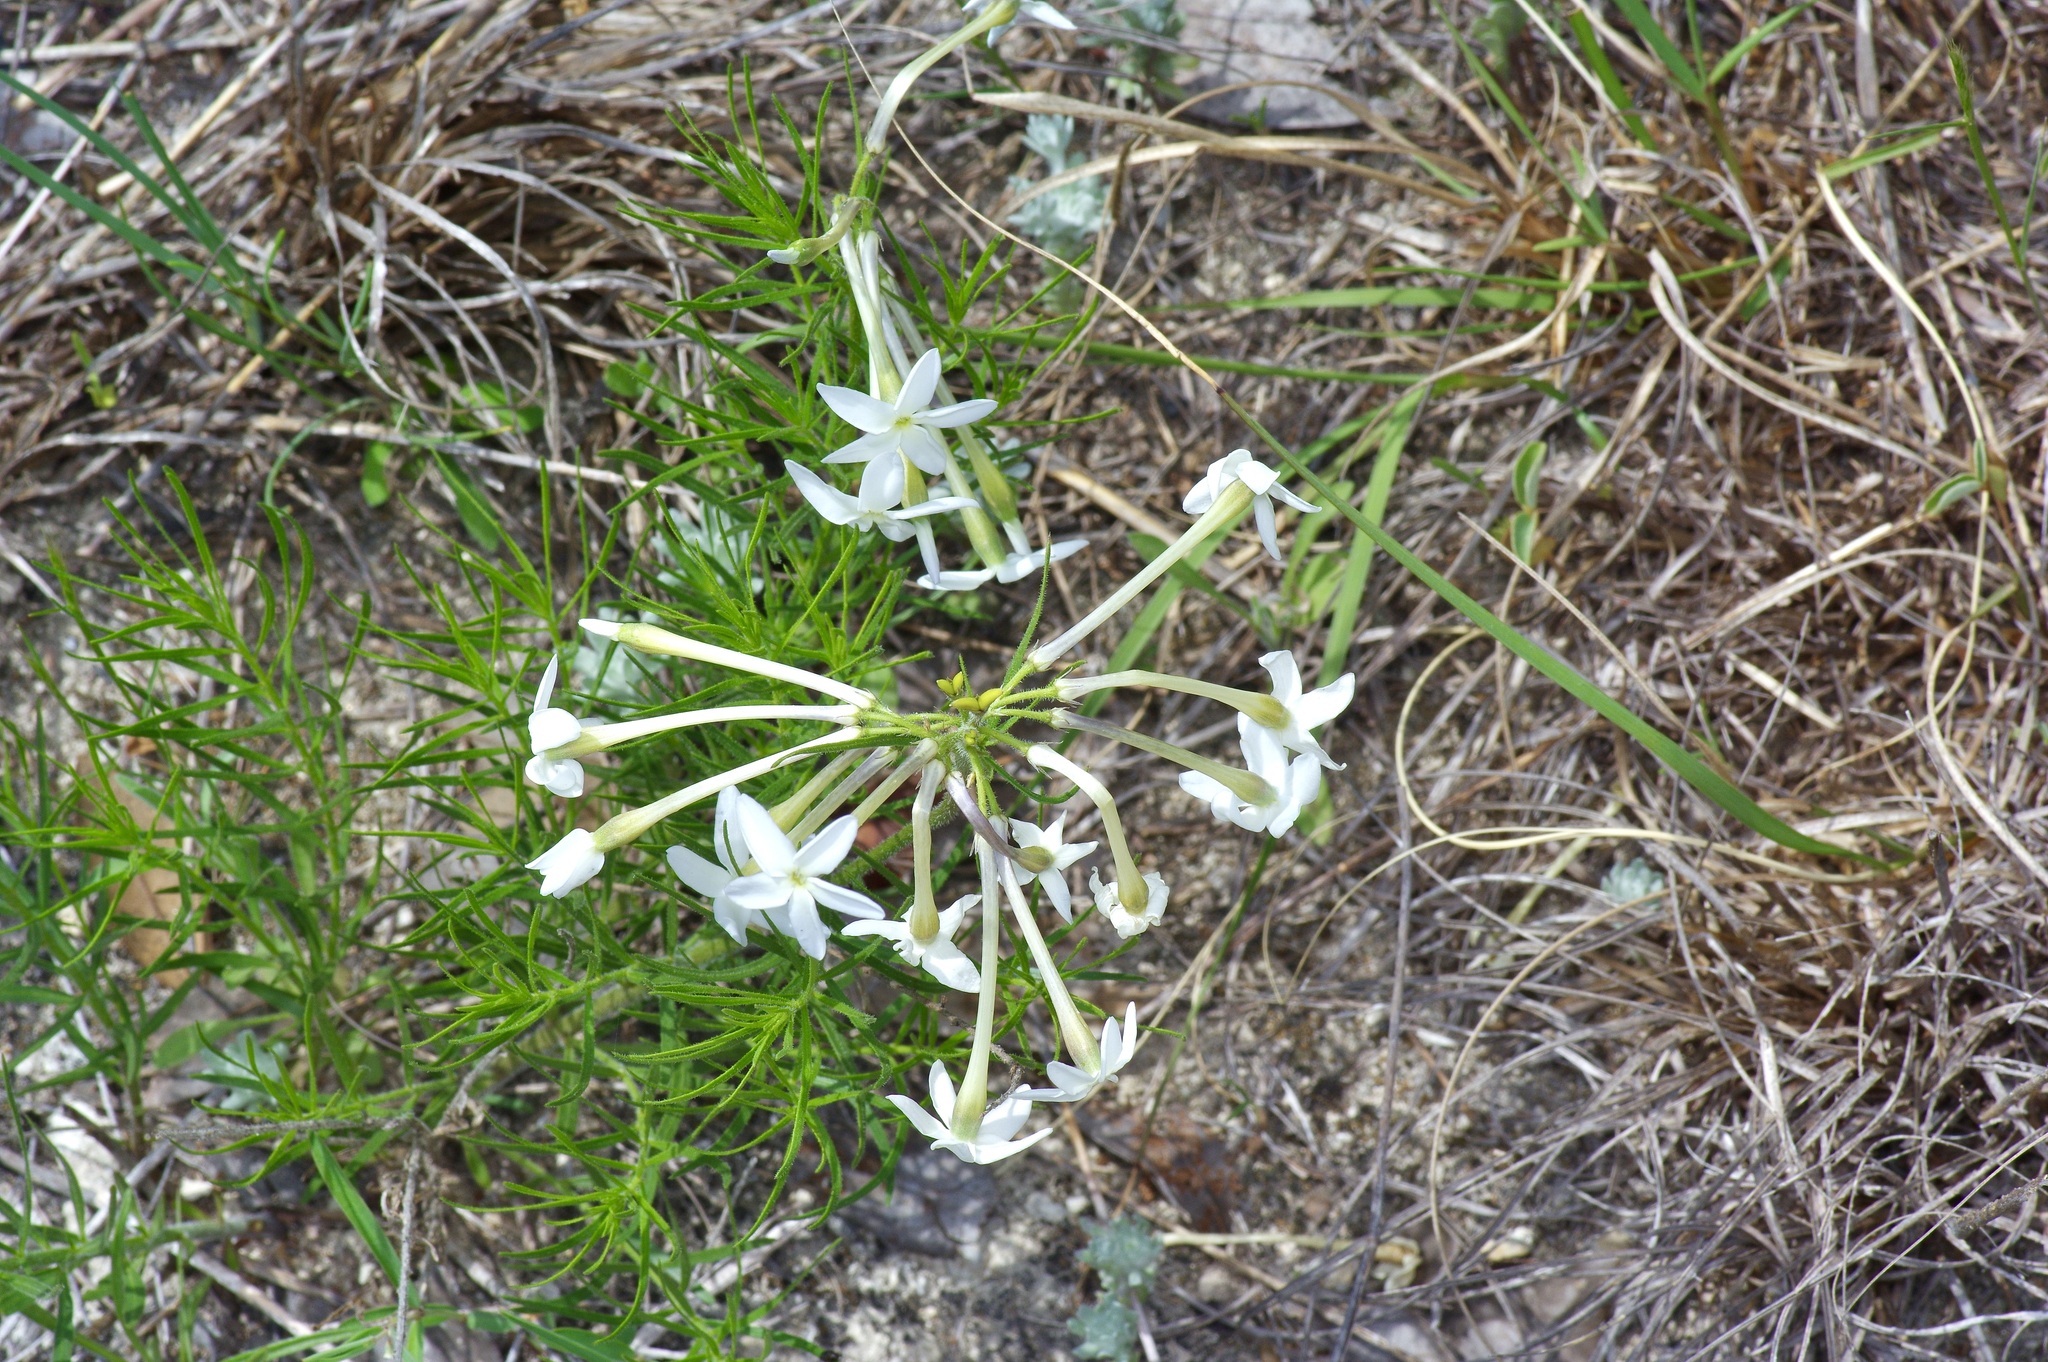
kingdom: Plantae
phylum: Tracheophyta
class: Magnoliopsida
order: Gentianales
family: Apocynaceae
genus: Amsonia
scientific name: Amsonia longiflora
